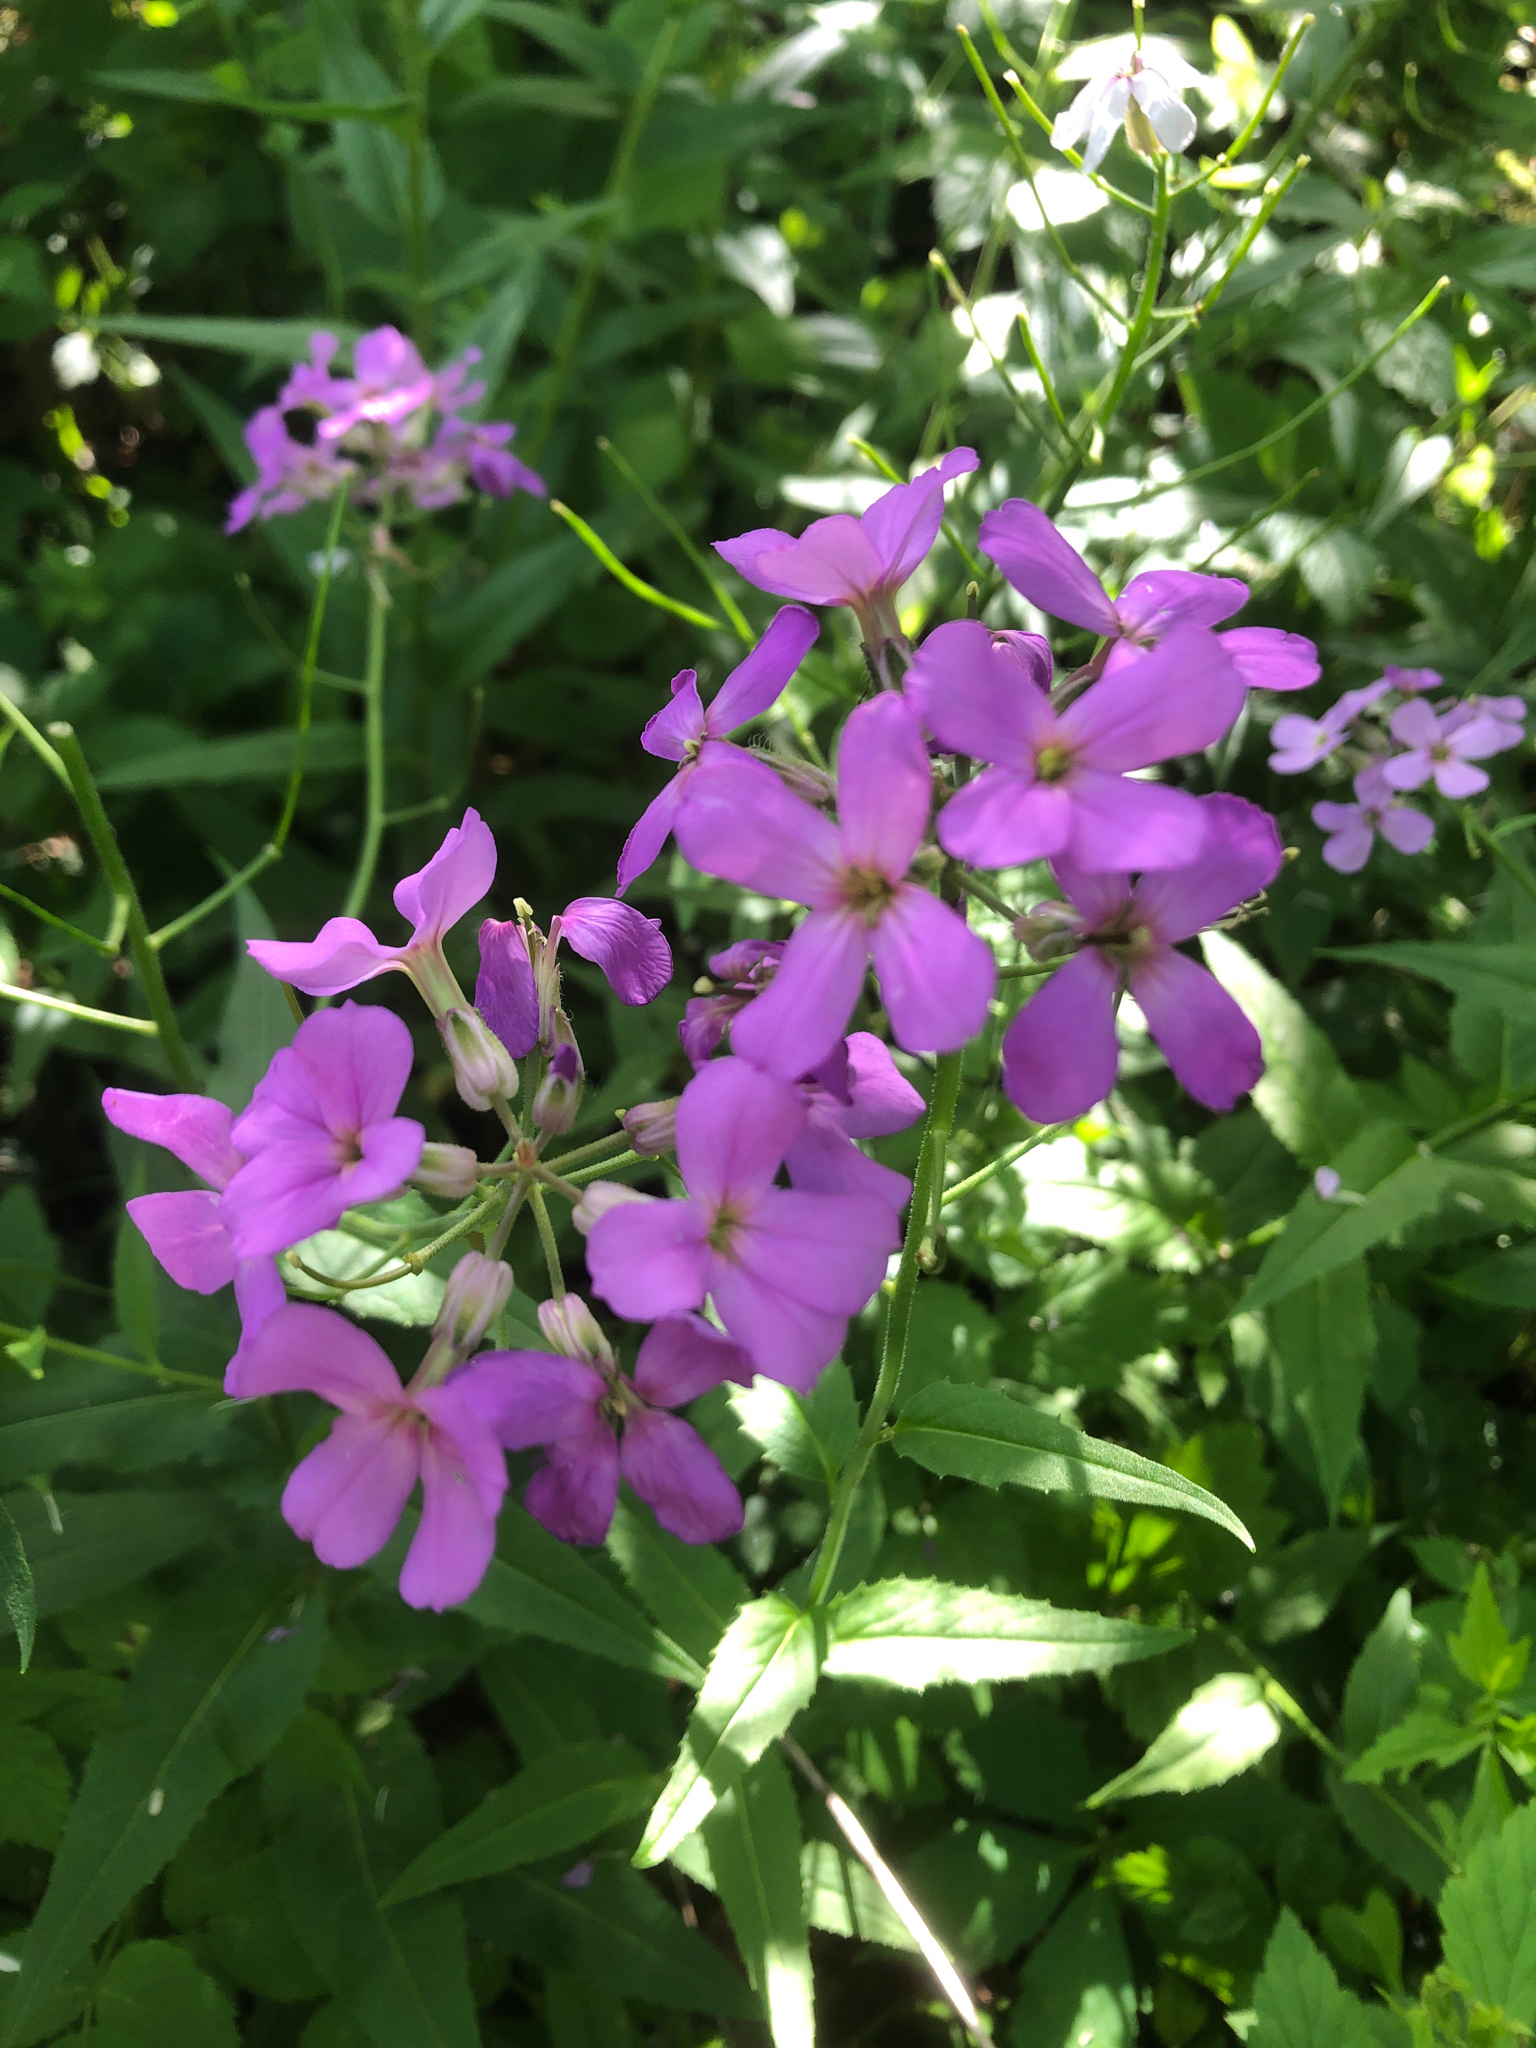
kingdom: Plantae
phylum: Tracheophyta
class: Magnoliopsida
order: Brassicales
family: Brassicaceae
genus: Hesperis
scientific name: Hesperis matronalis
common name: Dame's-violet
